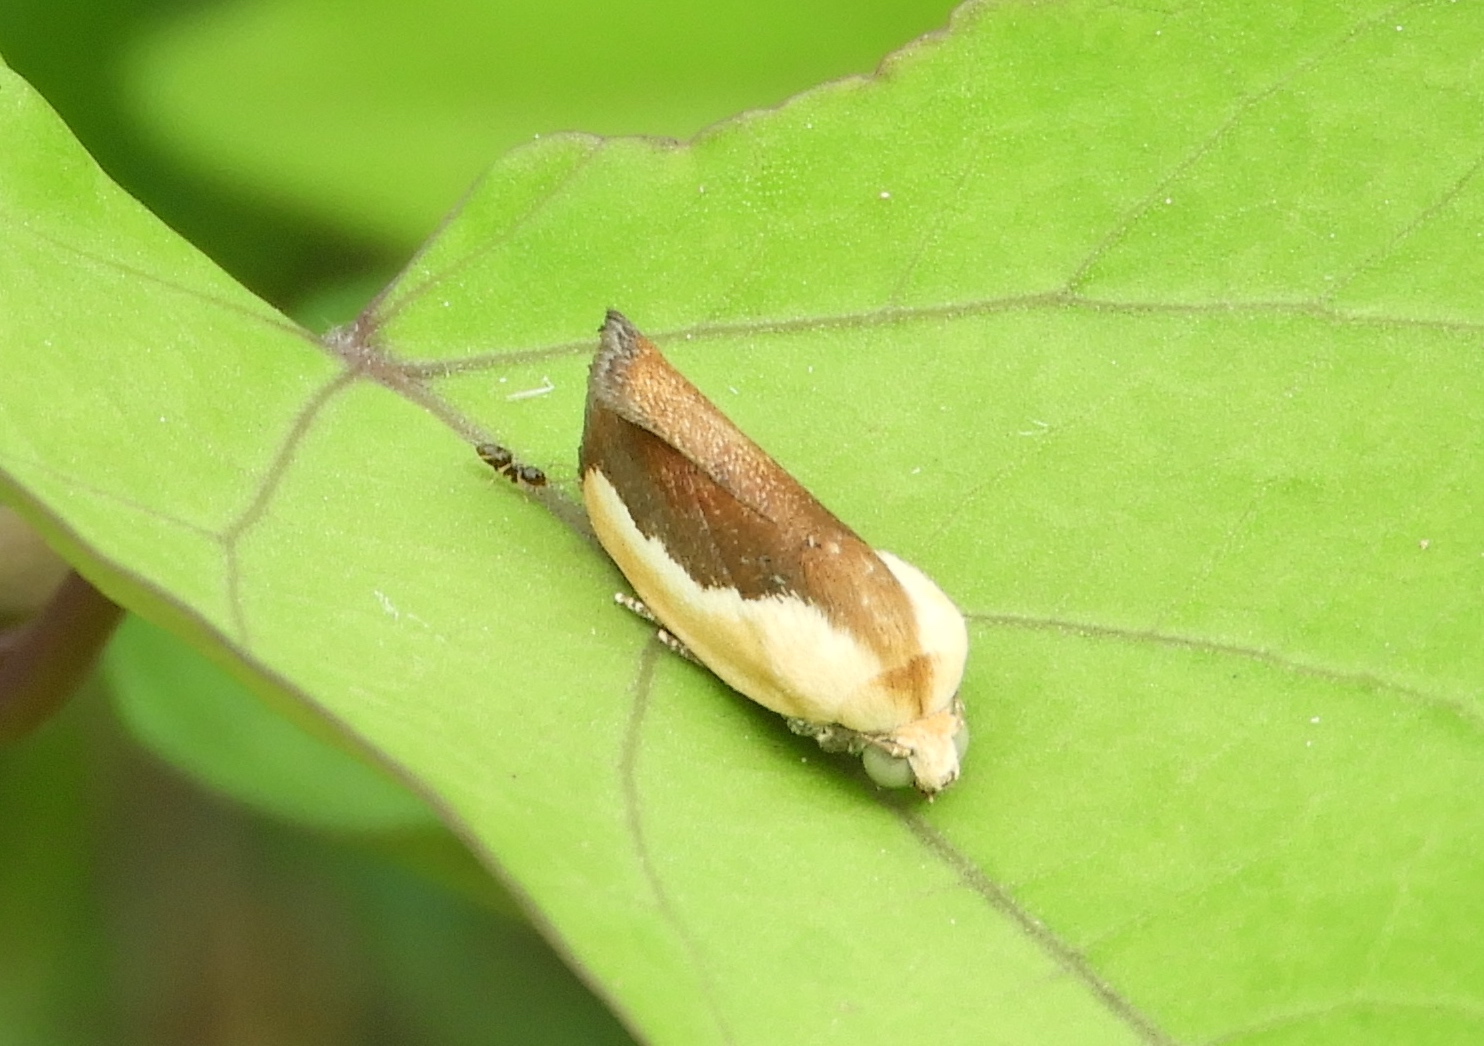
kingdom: Animalia
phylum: Arthropoda
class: Insecta
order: Lepidoptera
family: Noctuidae
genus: Acontia
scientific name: Acontia exigua
